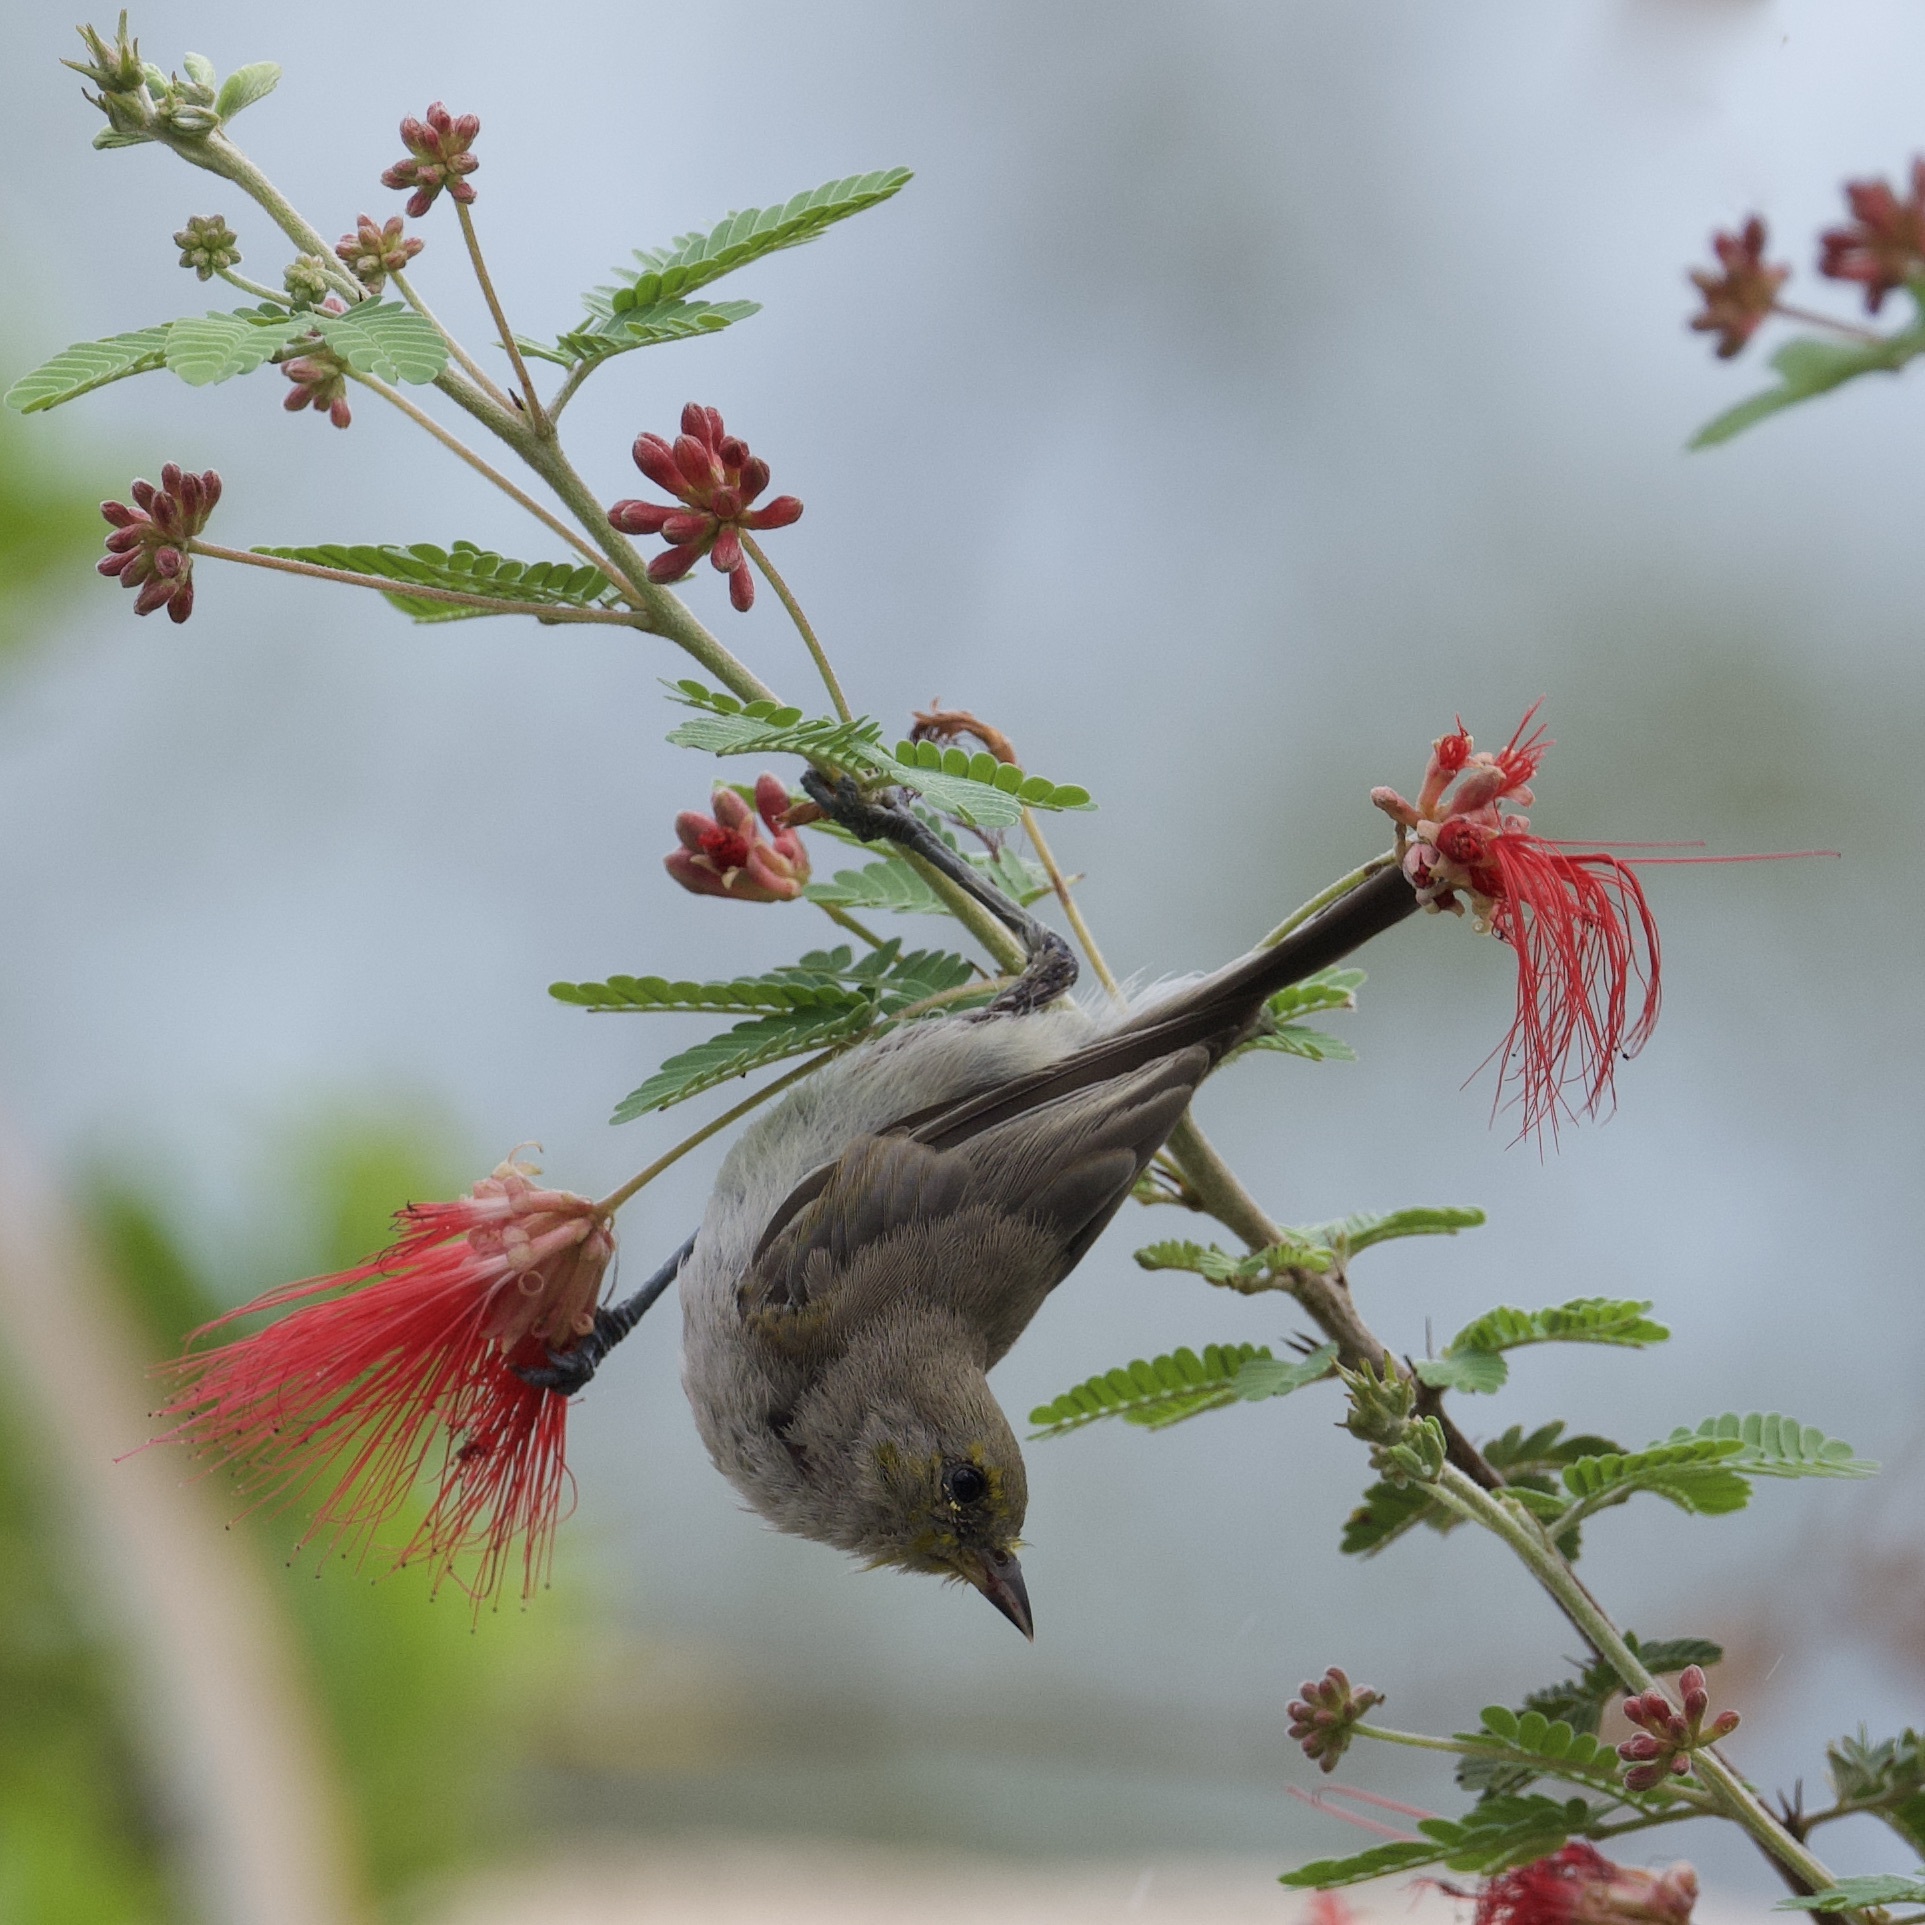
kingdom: Animalia
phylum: Chordata
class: Aves
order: Passeriformes
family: Remizidae
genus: Auriparus
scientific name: Auriparus flaviceps
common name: Verdin
